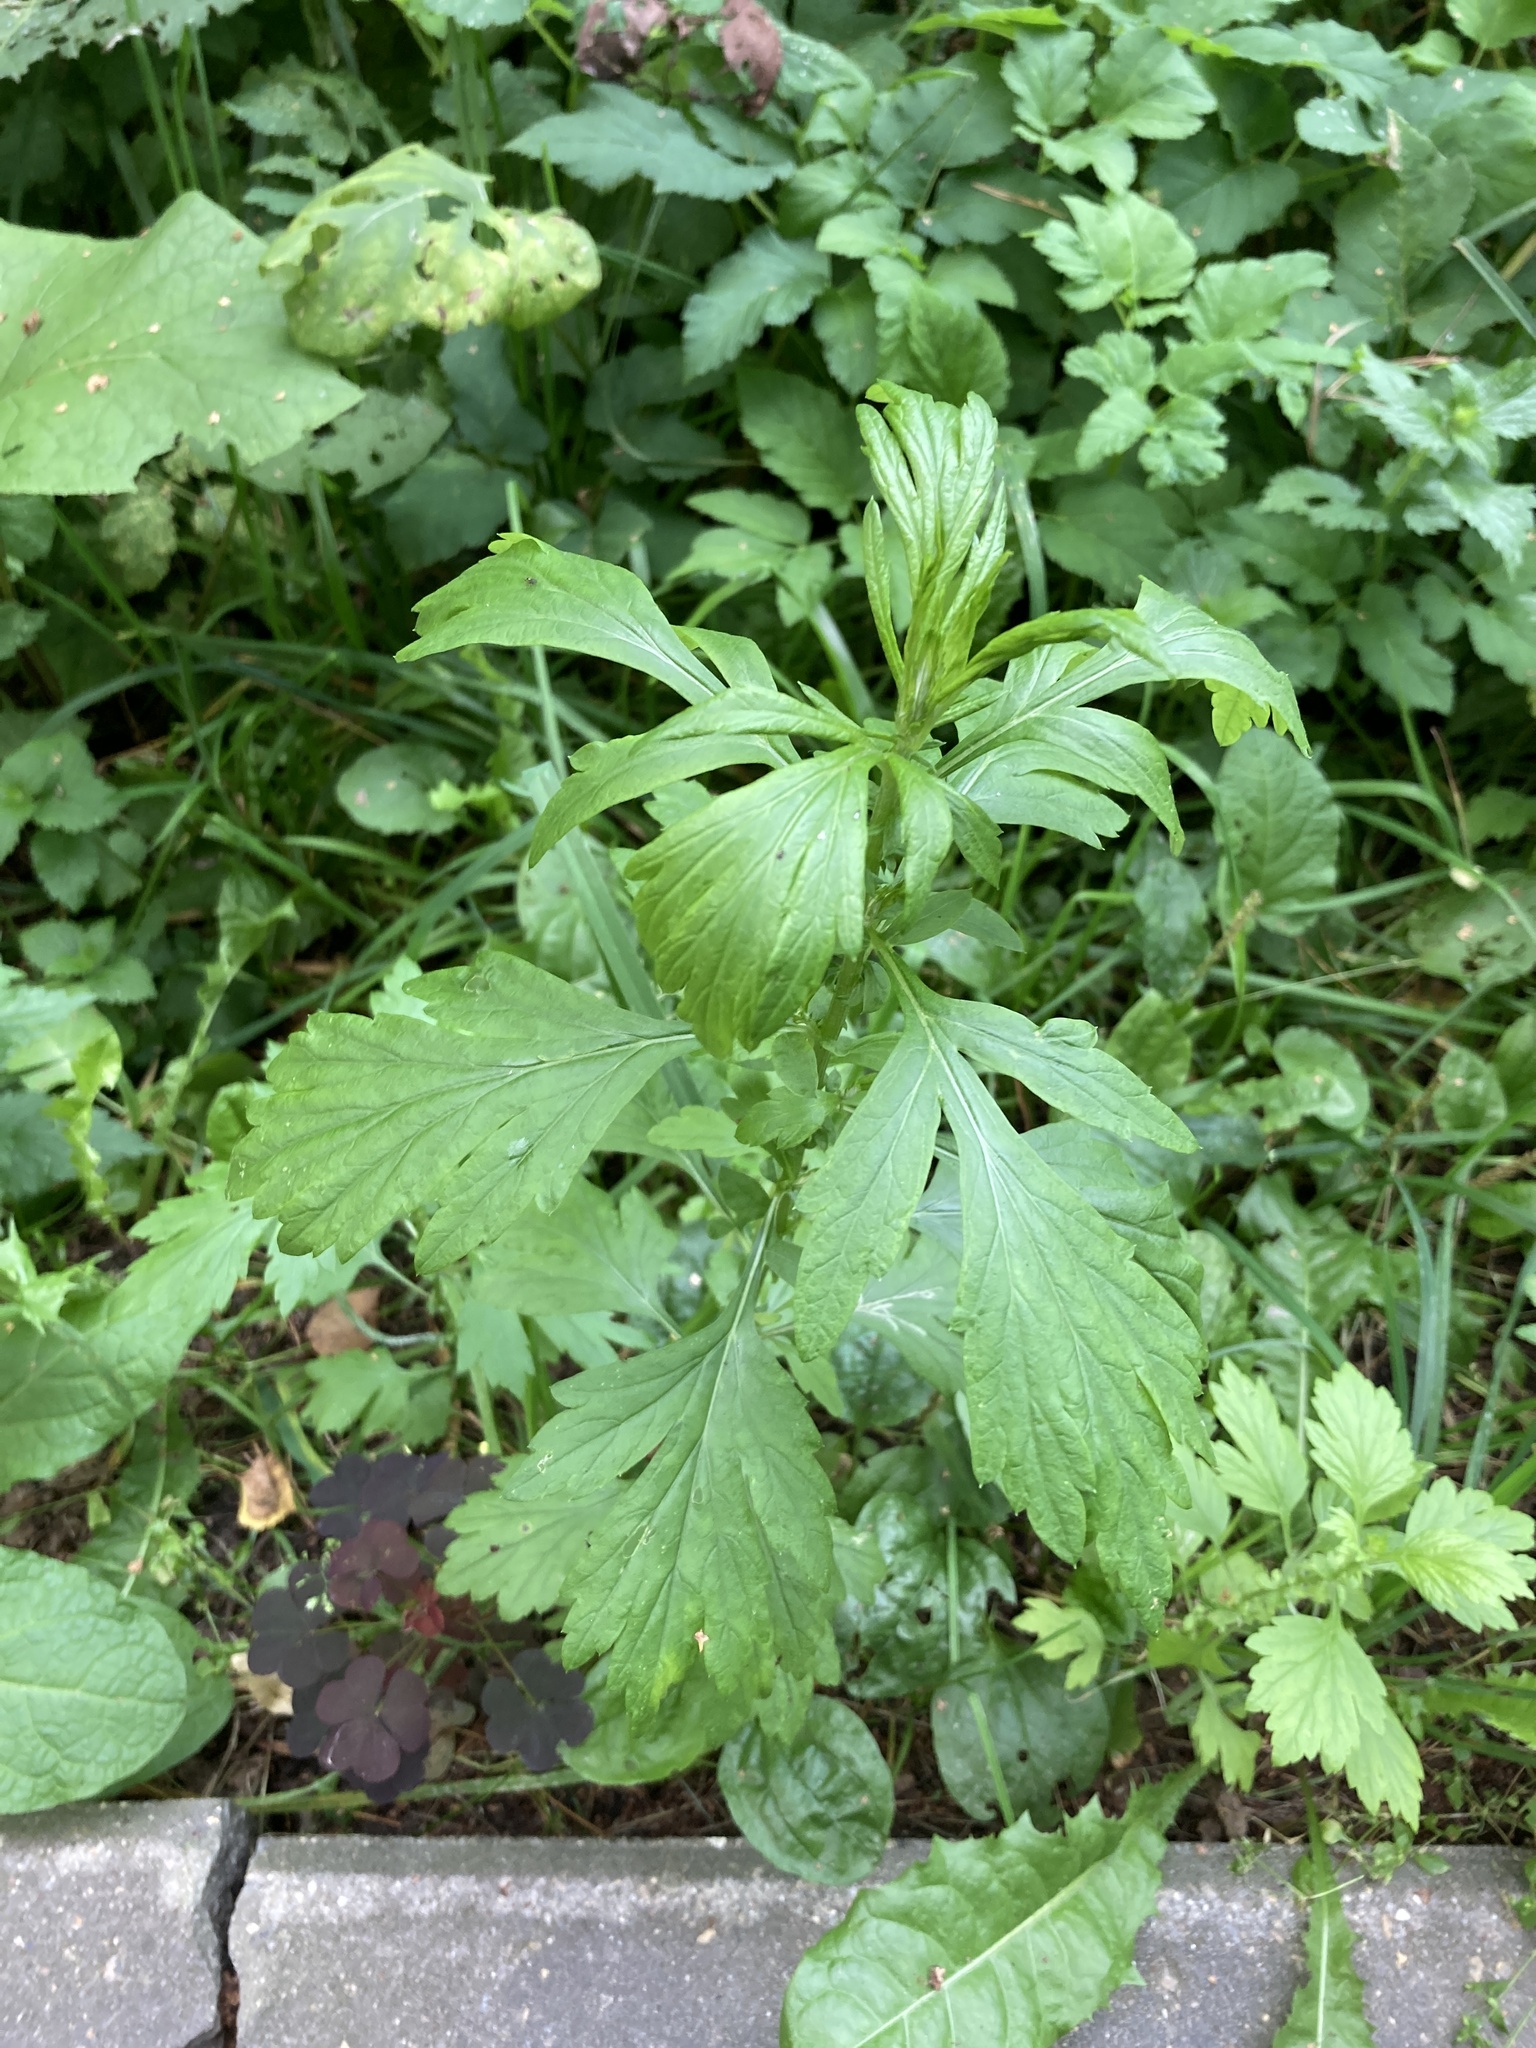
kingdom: Plantae
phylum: Tracheophyta
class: Magnoliopsida
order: Asterales
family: Asteraceae
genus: Artemisia
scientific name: Artemisia vulgaris
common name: Mugwort
